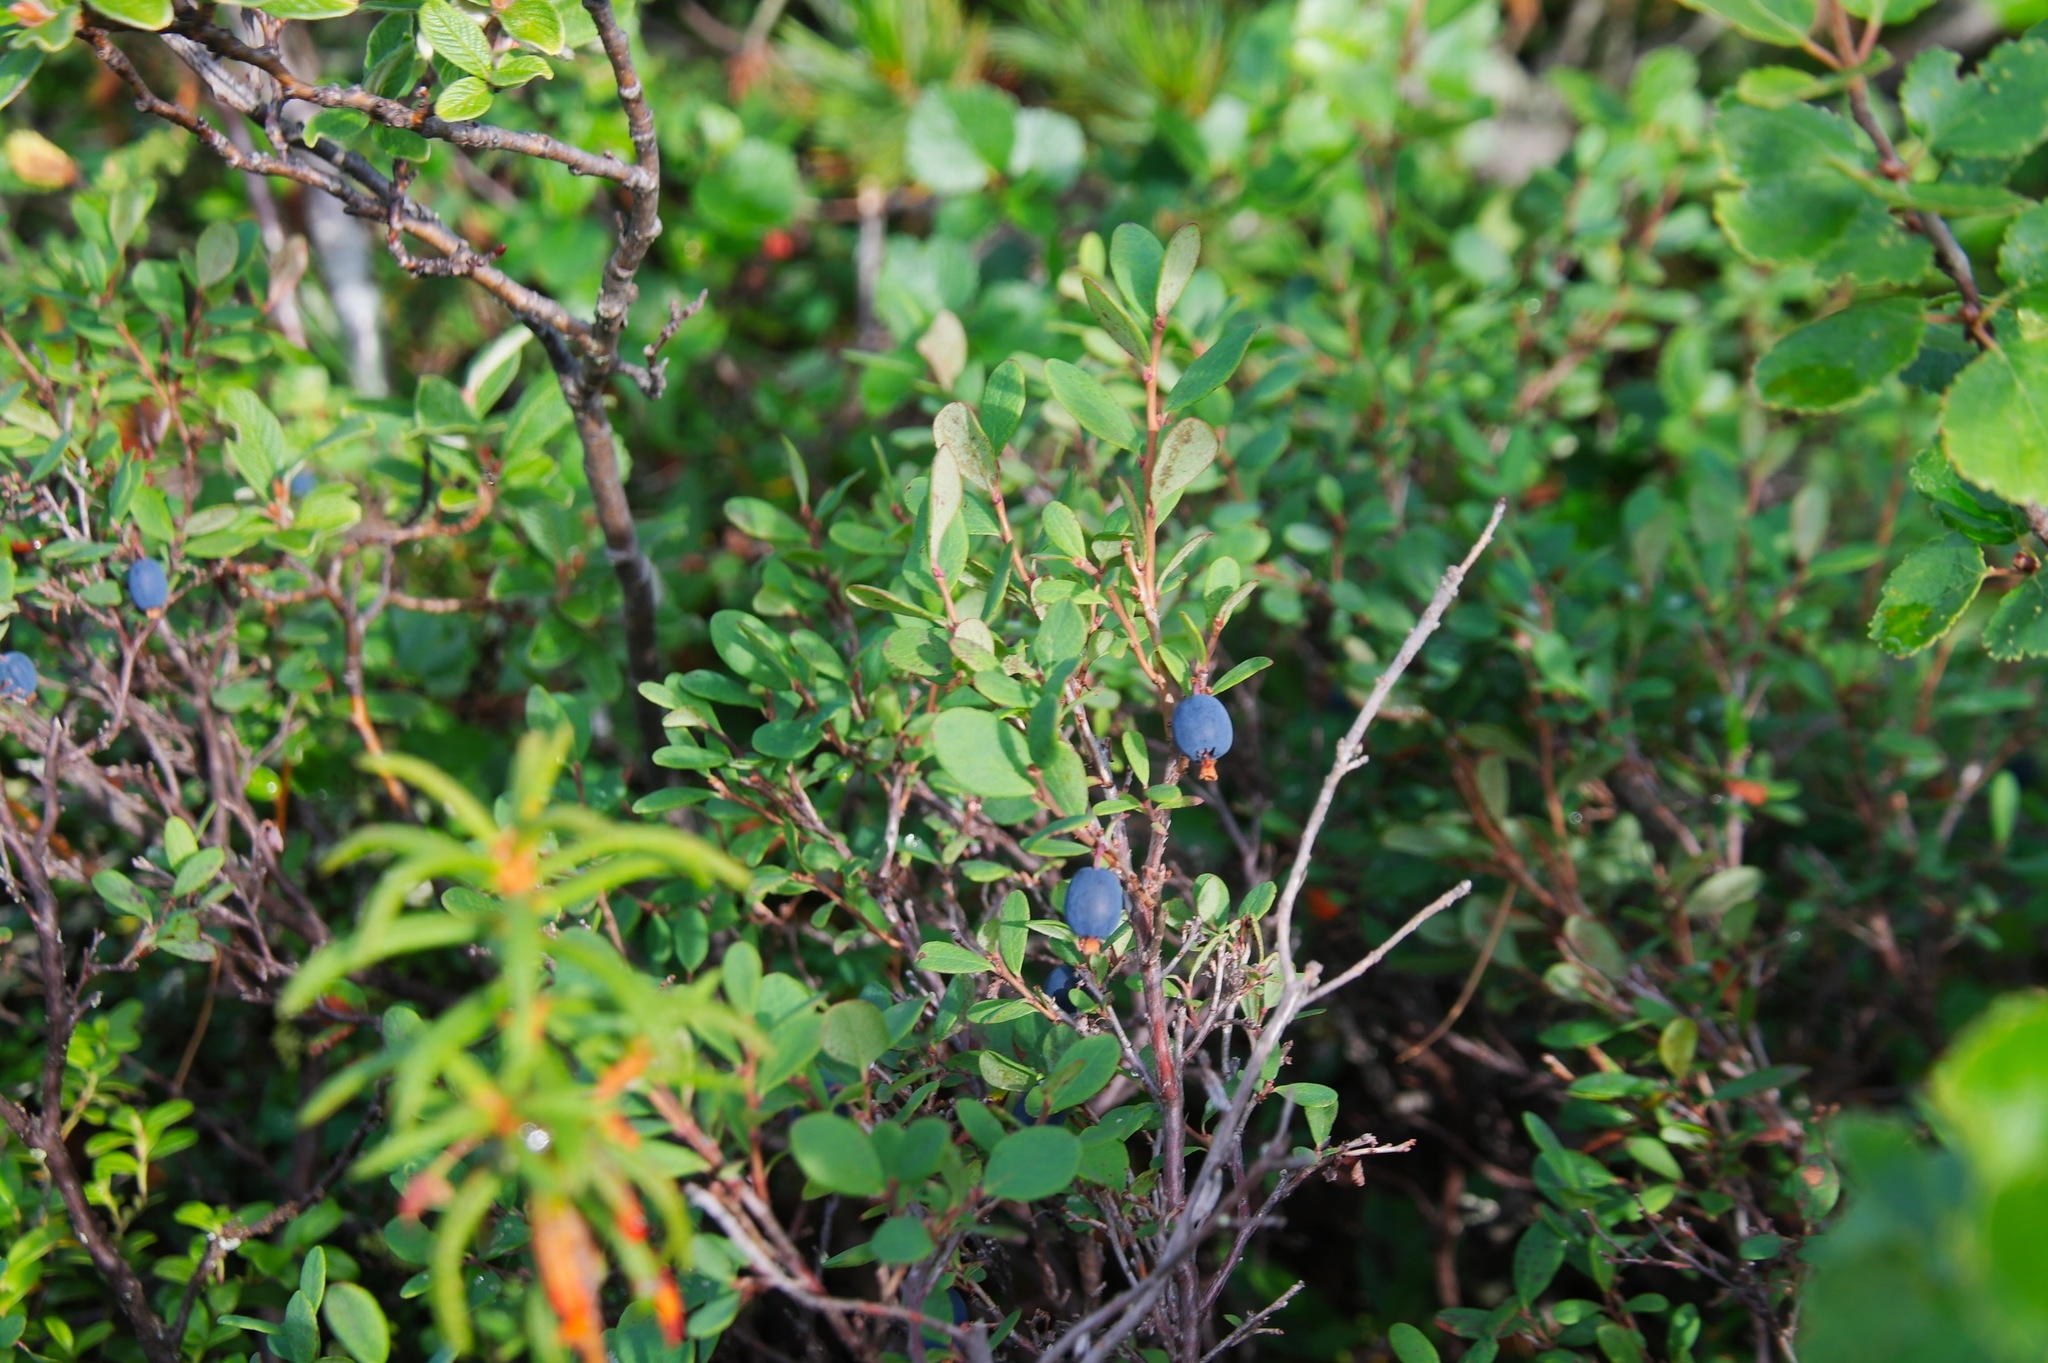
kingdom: Plantae
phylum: Tracheophyta
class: Magnoliopsida
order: Ericales
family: Ericaceae
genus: Vaccinium
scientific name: Vaccinium uliginosum
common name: Bog bilberry
